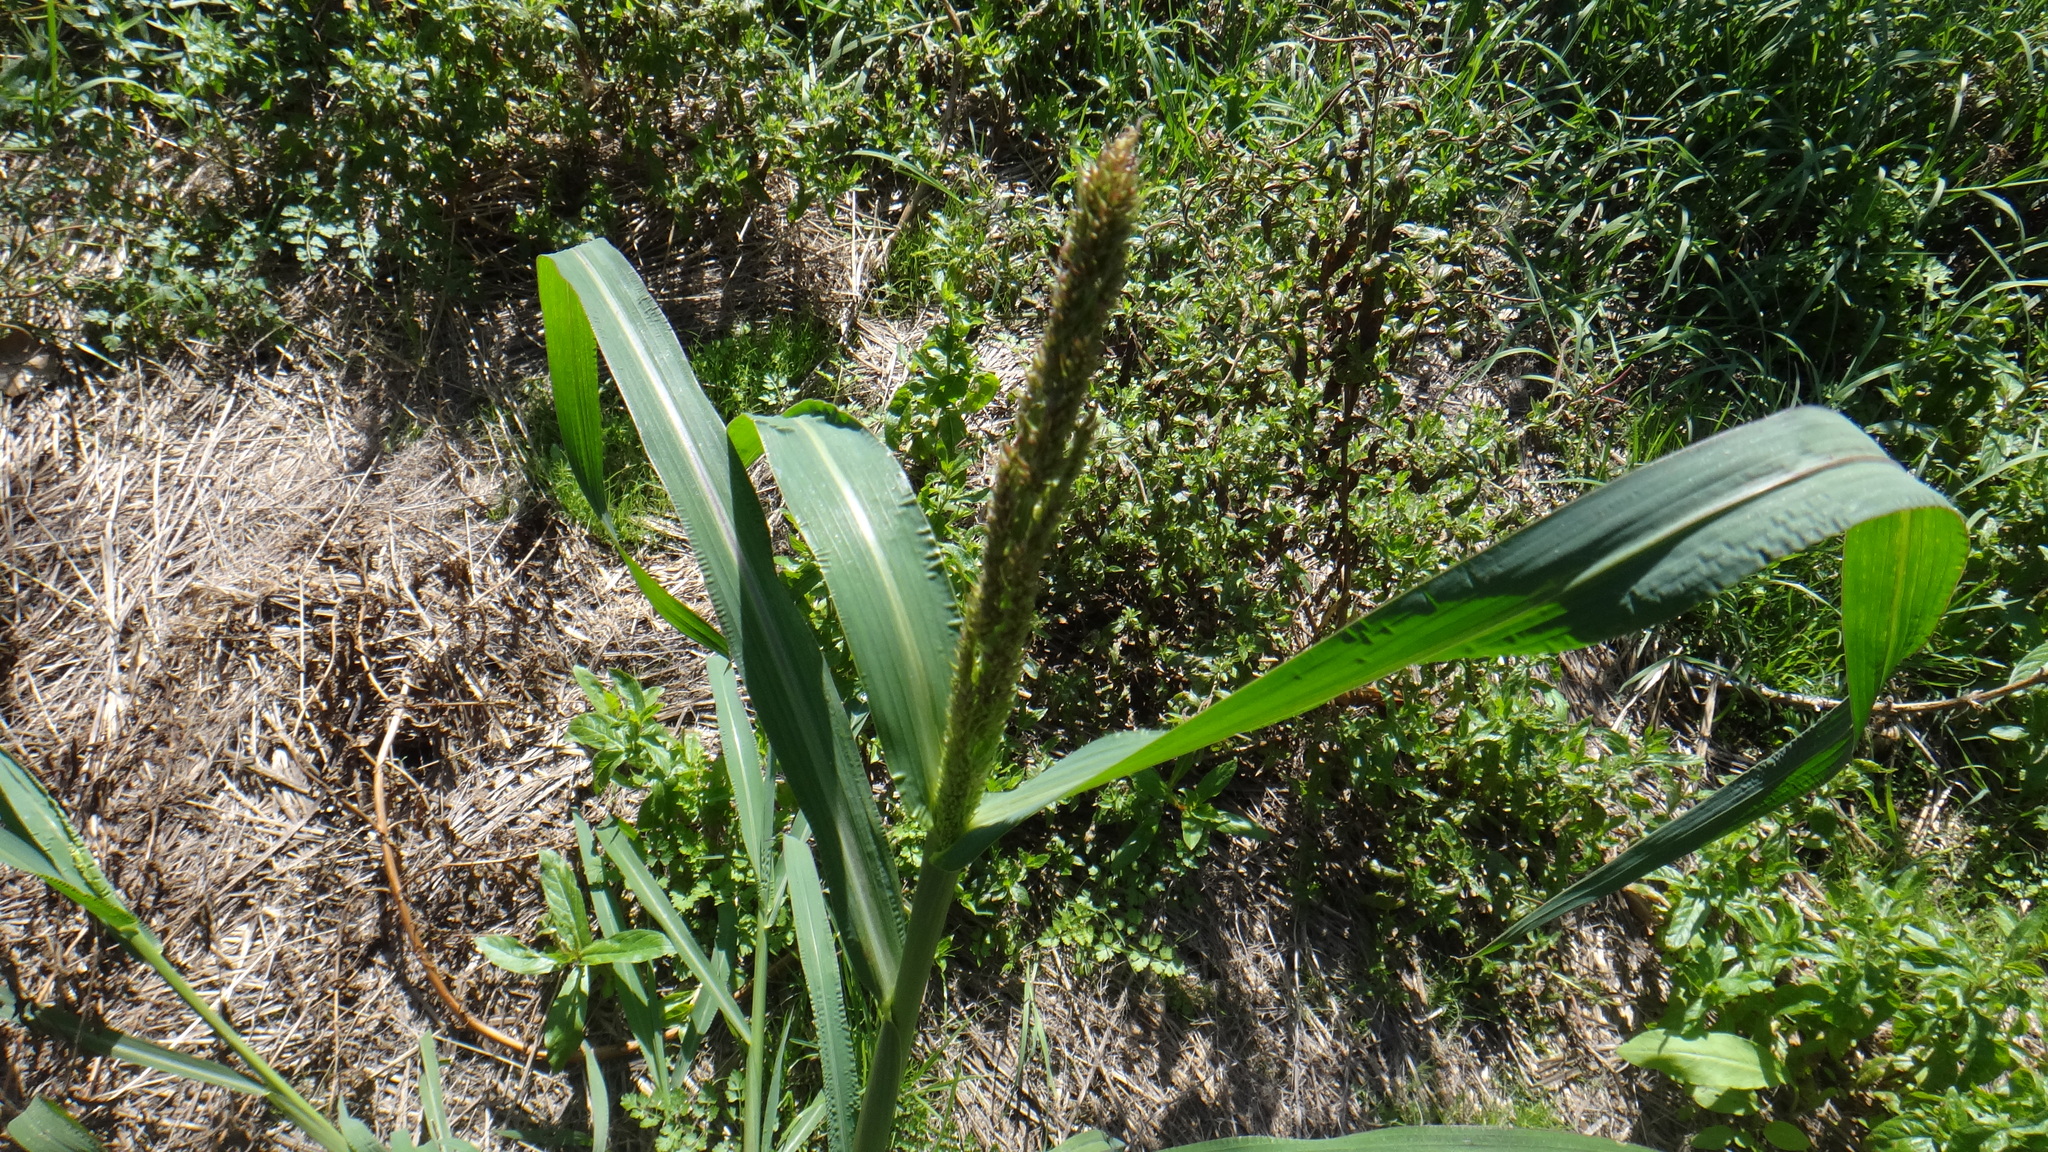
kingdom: Plantae
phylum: Tracheophyta
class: Liliopsida
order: Poales
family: Poaceae
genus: Echinochloa
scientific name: Echinochloa crus-galli
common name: Cockspur
